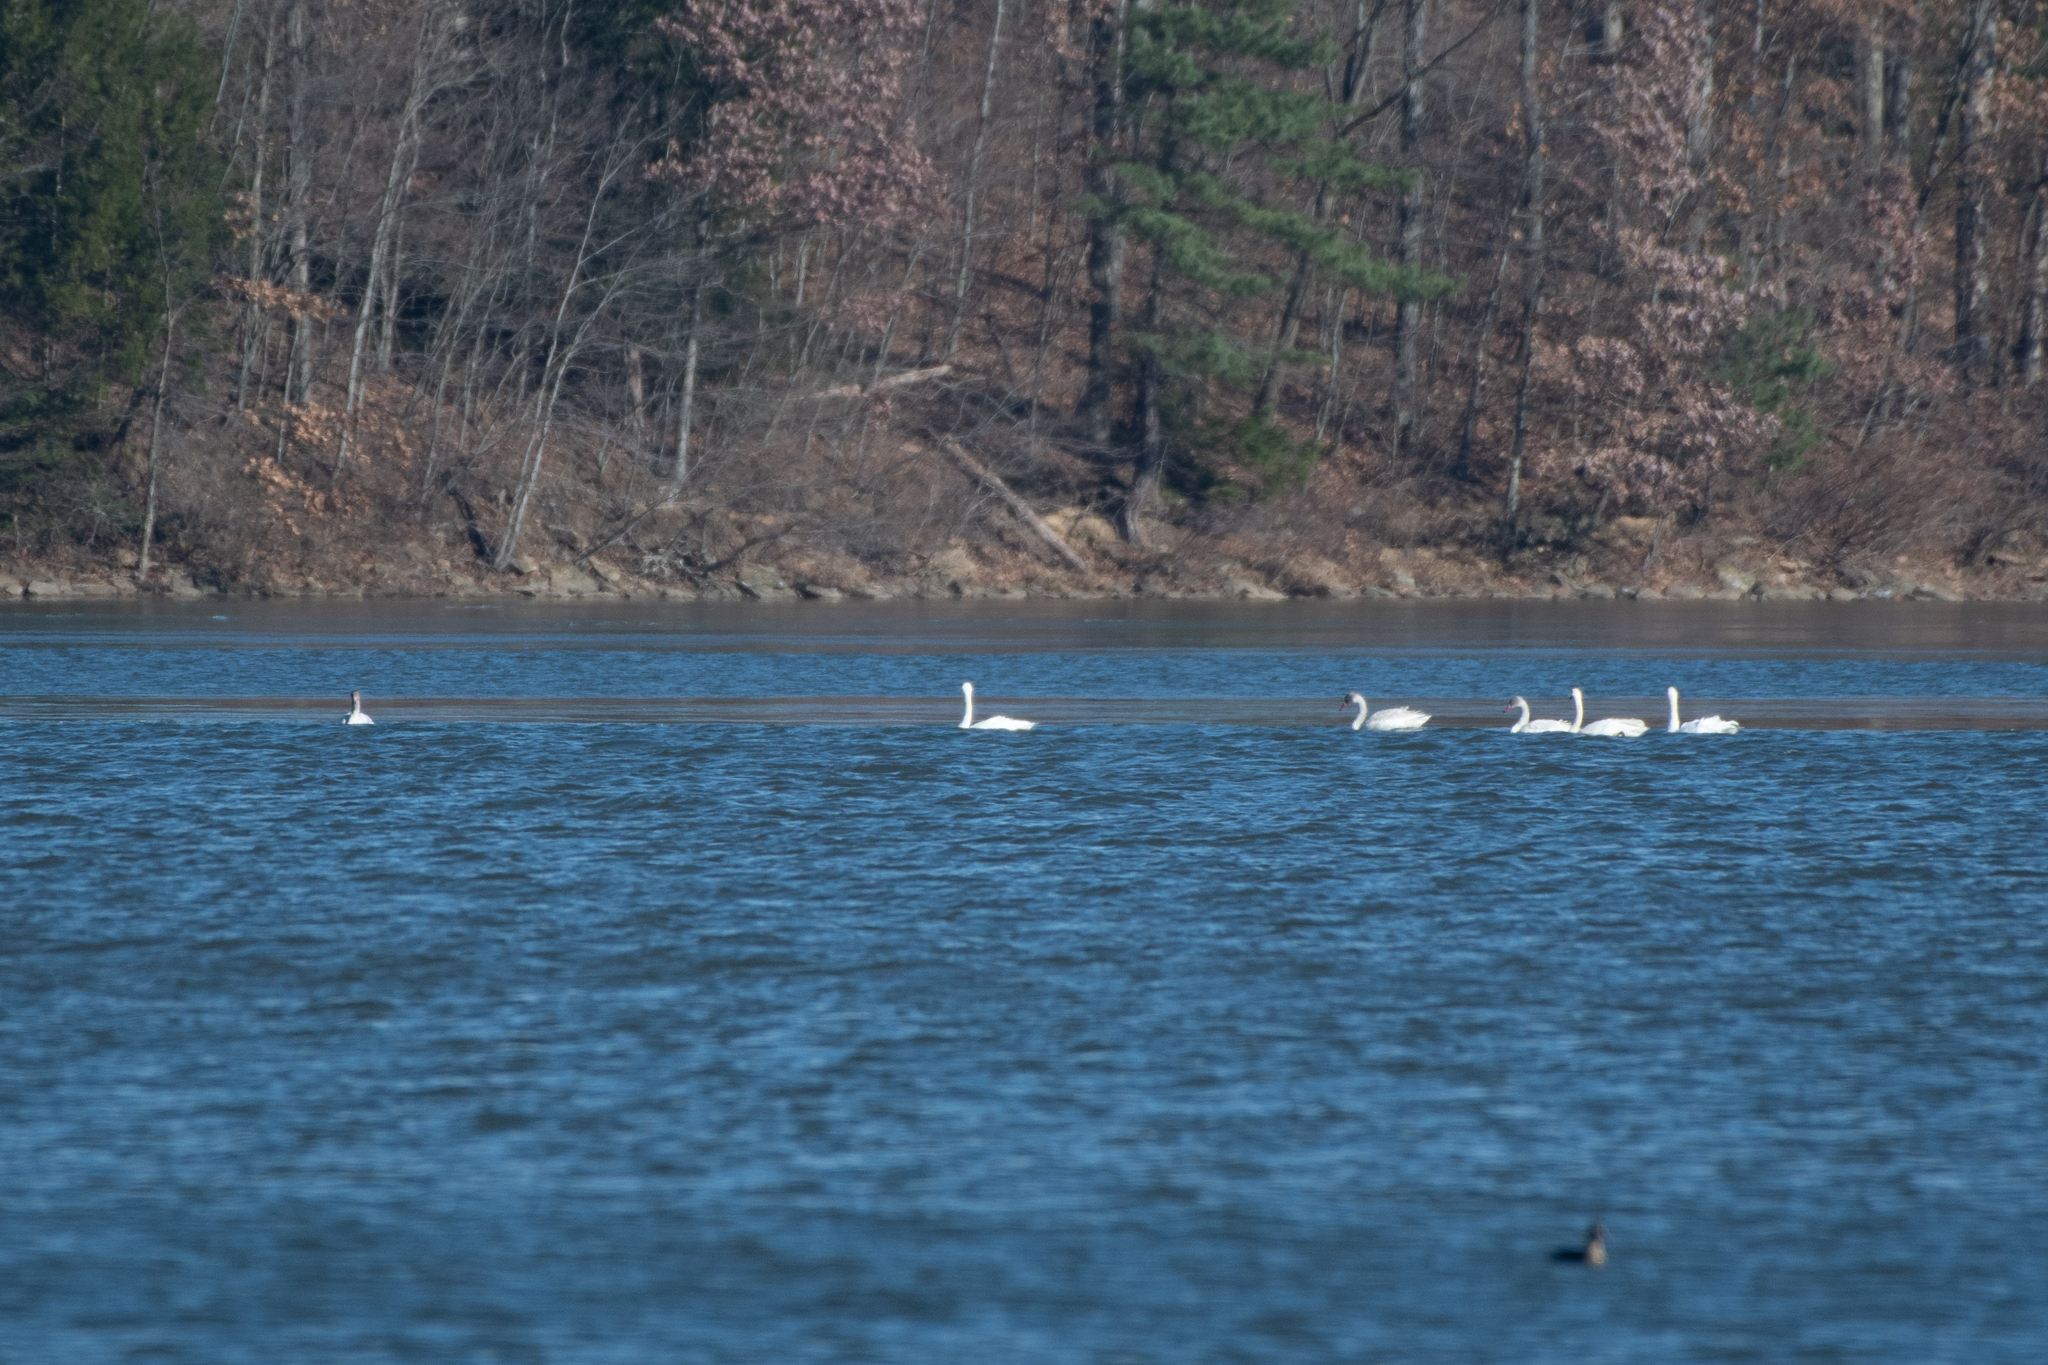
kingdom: Animalia
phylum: Chordata
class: Aves
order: Anseriformes
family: Anatidae
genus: Cygnus
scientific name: Cygnus columbianus
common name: Tundra swan
